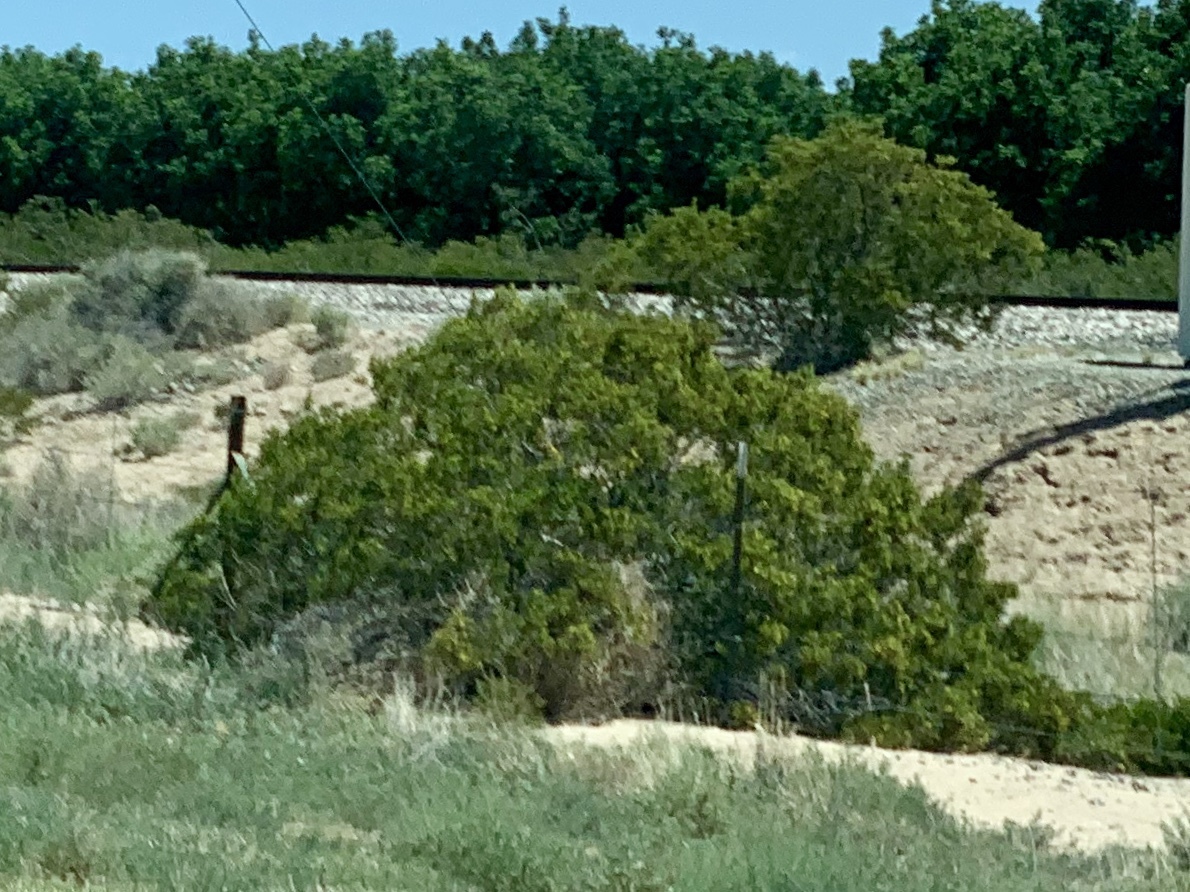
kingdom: Plantae
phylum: Tracheophyta
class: Magnoliopsida
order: Zygophyllales
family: Zygophyllaceae
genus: Larrea
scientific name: Larrea tridentata
